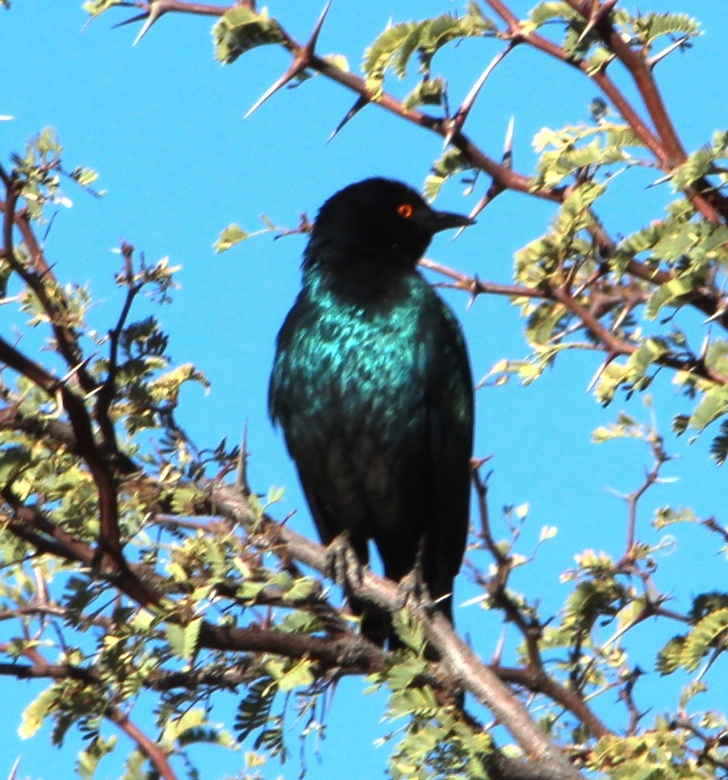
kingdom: Animalia
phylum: Chordata
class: Aves
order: Passeriformes
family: Sturnidae
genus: Lamprotornis
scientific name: Lamprotornis nitens
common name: Cape starling
